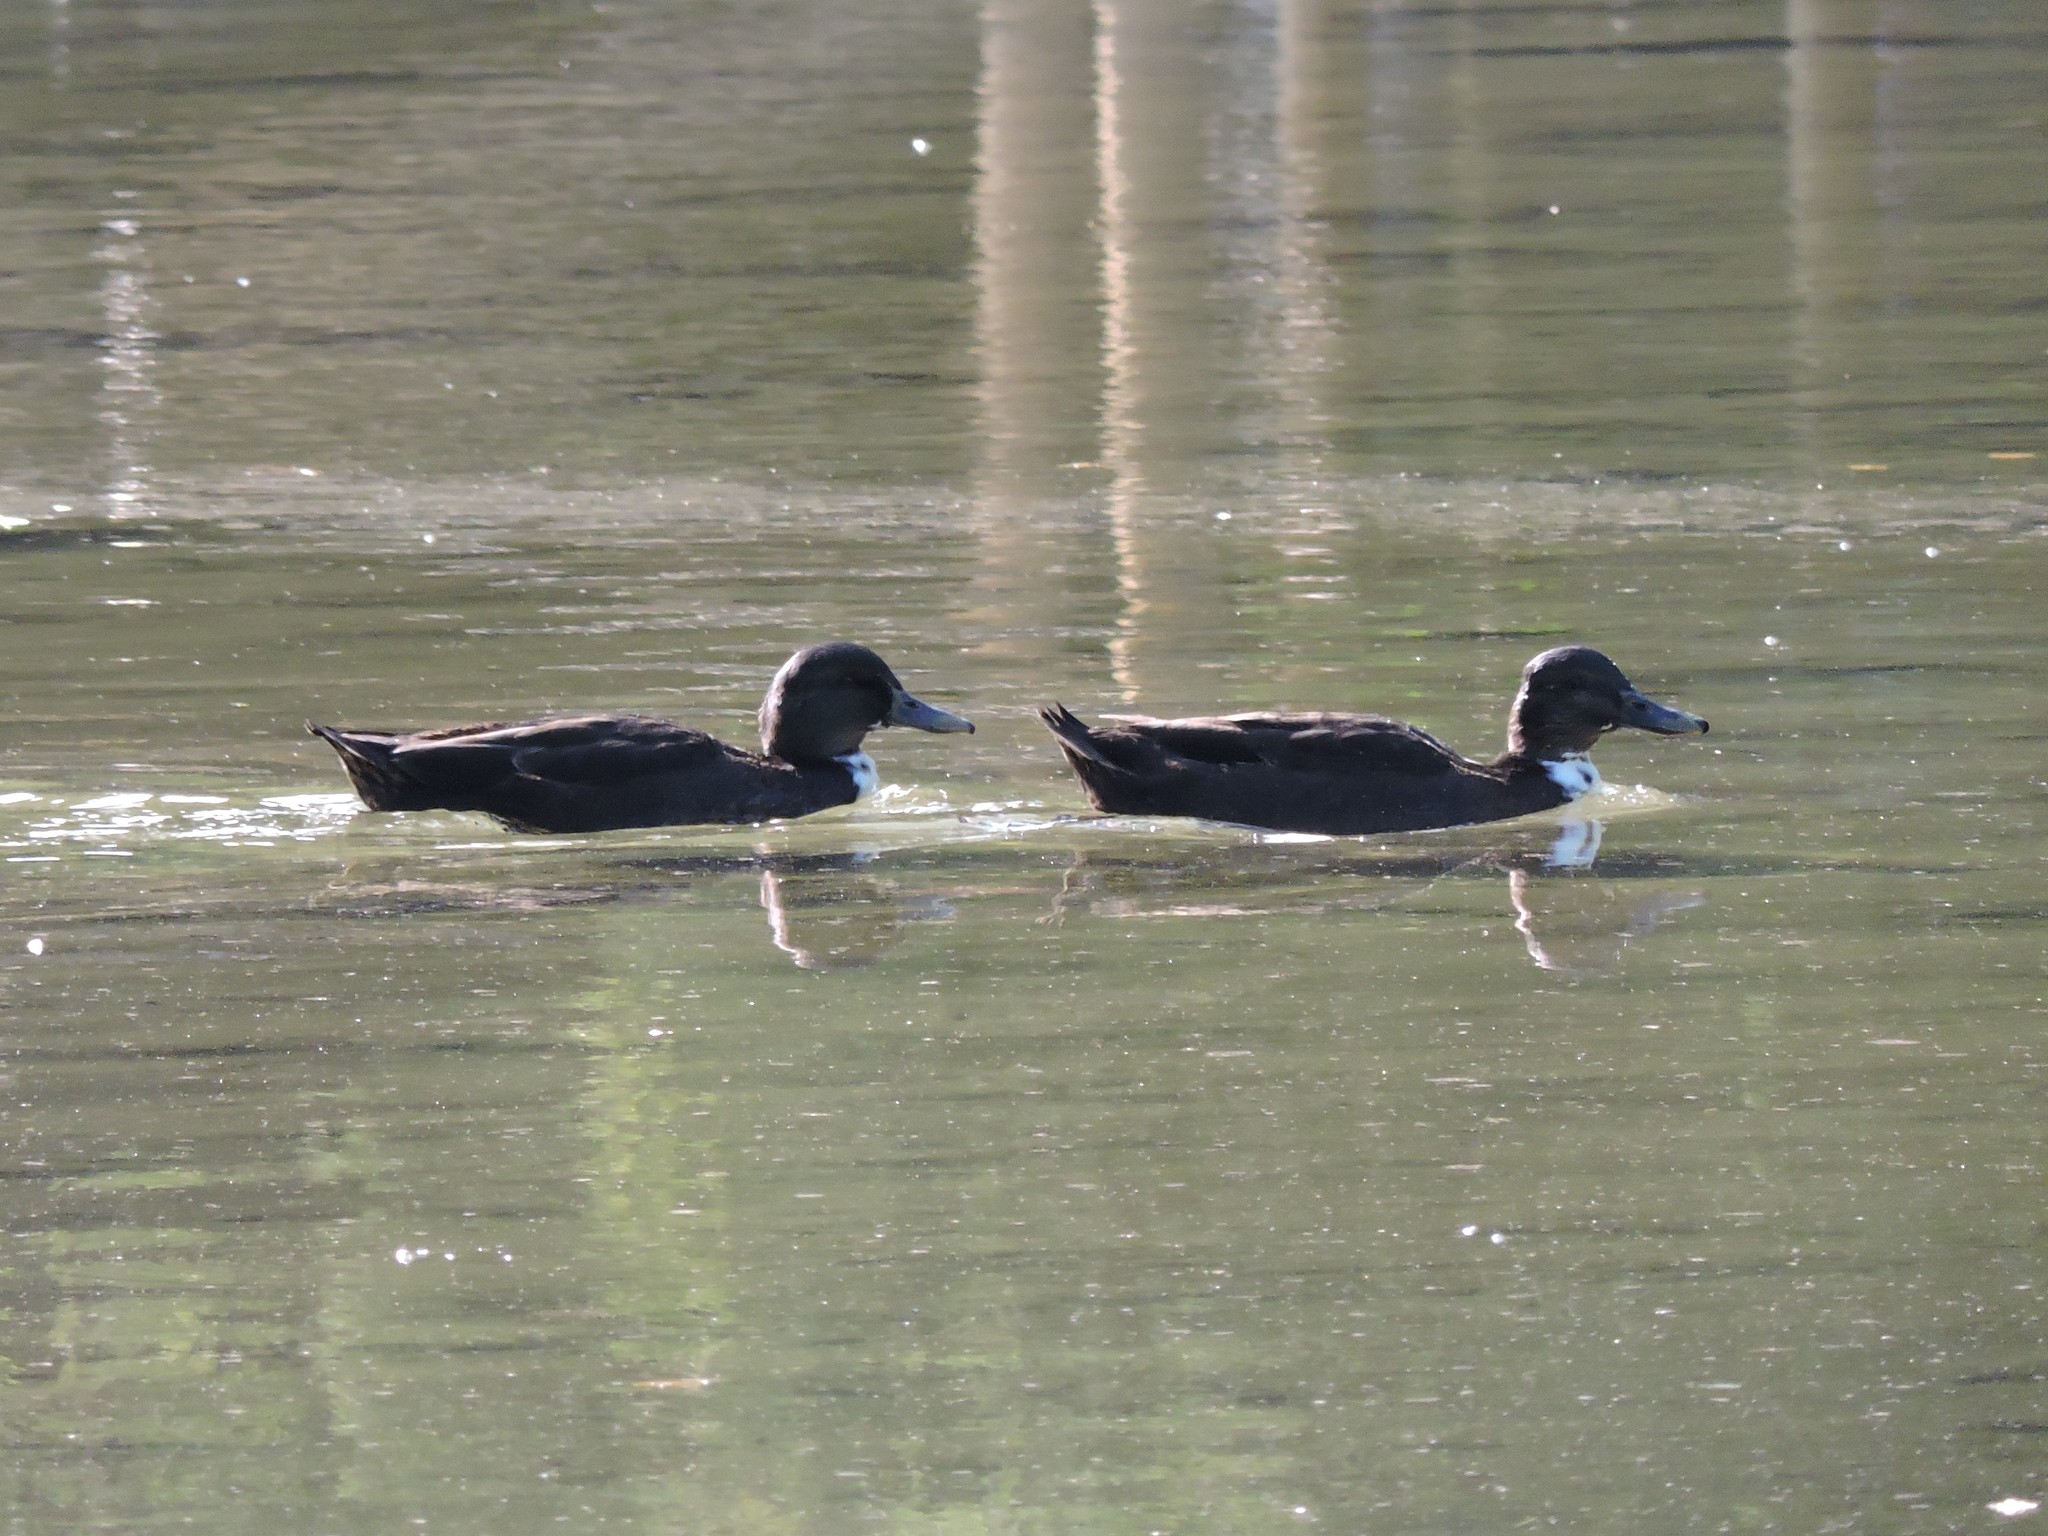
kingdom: Animalia
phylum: Chordata
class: Aves
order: Anseriformes
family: Anatidae
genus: Anas
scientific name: Anas platyrhynchos
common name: Mallard
